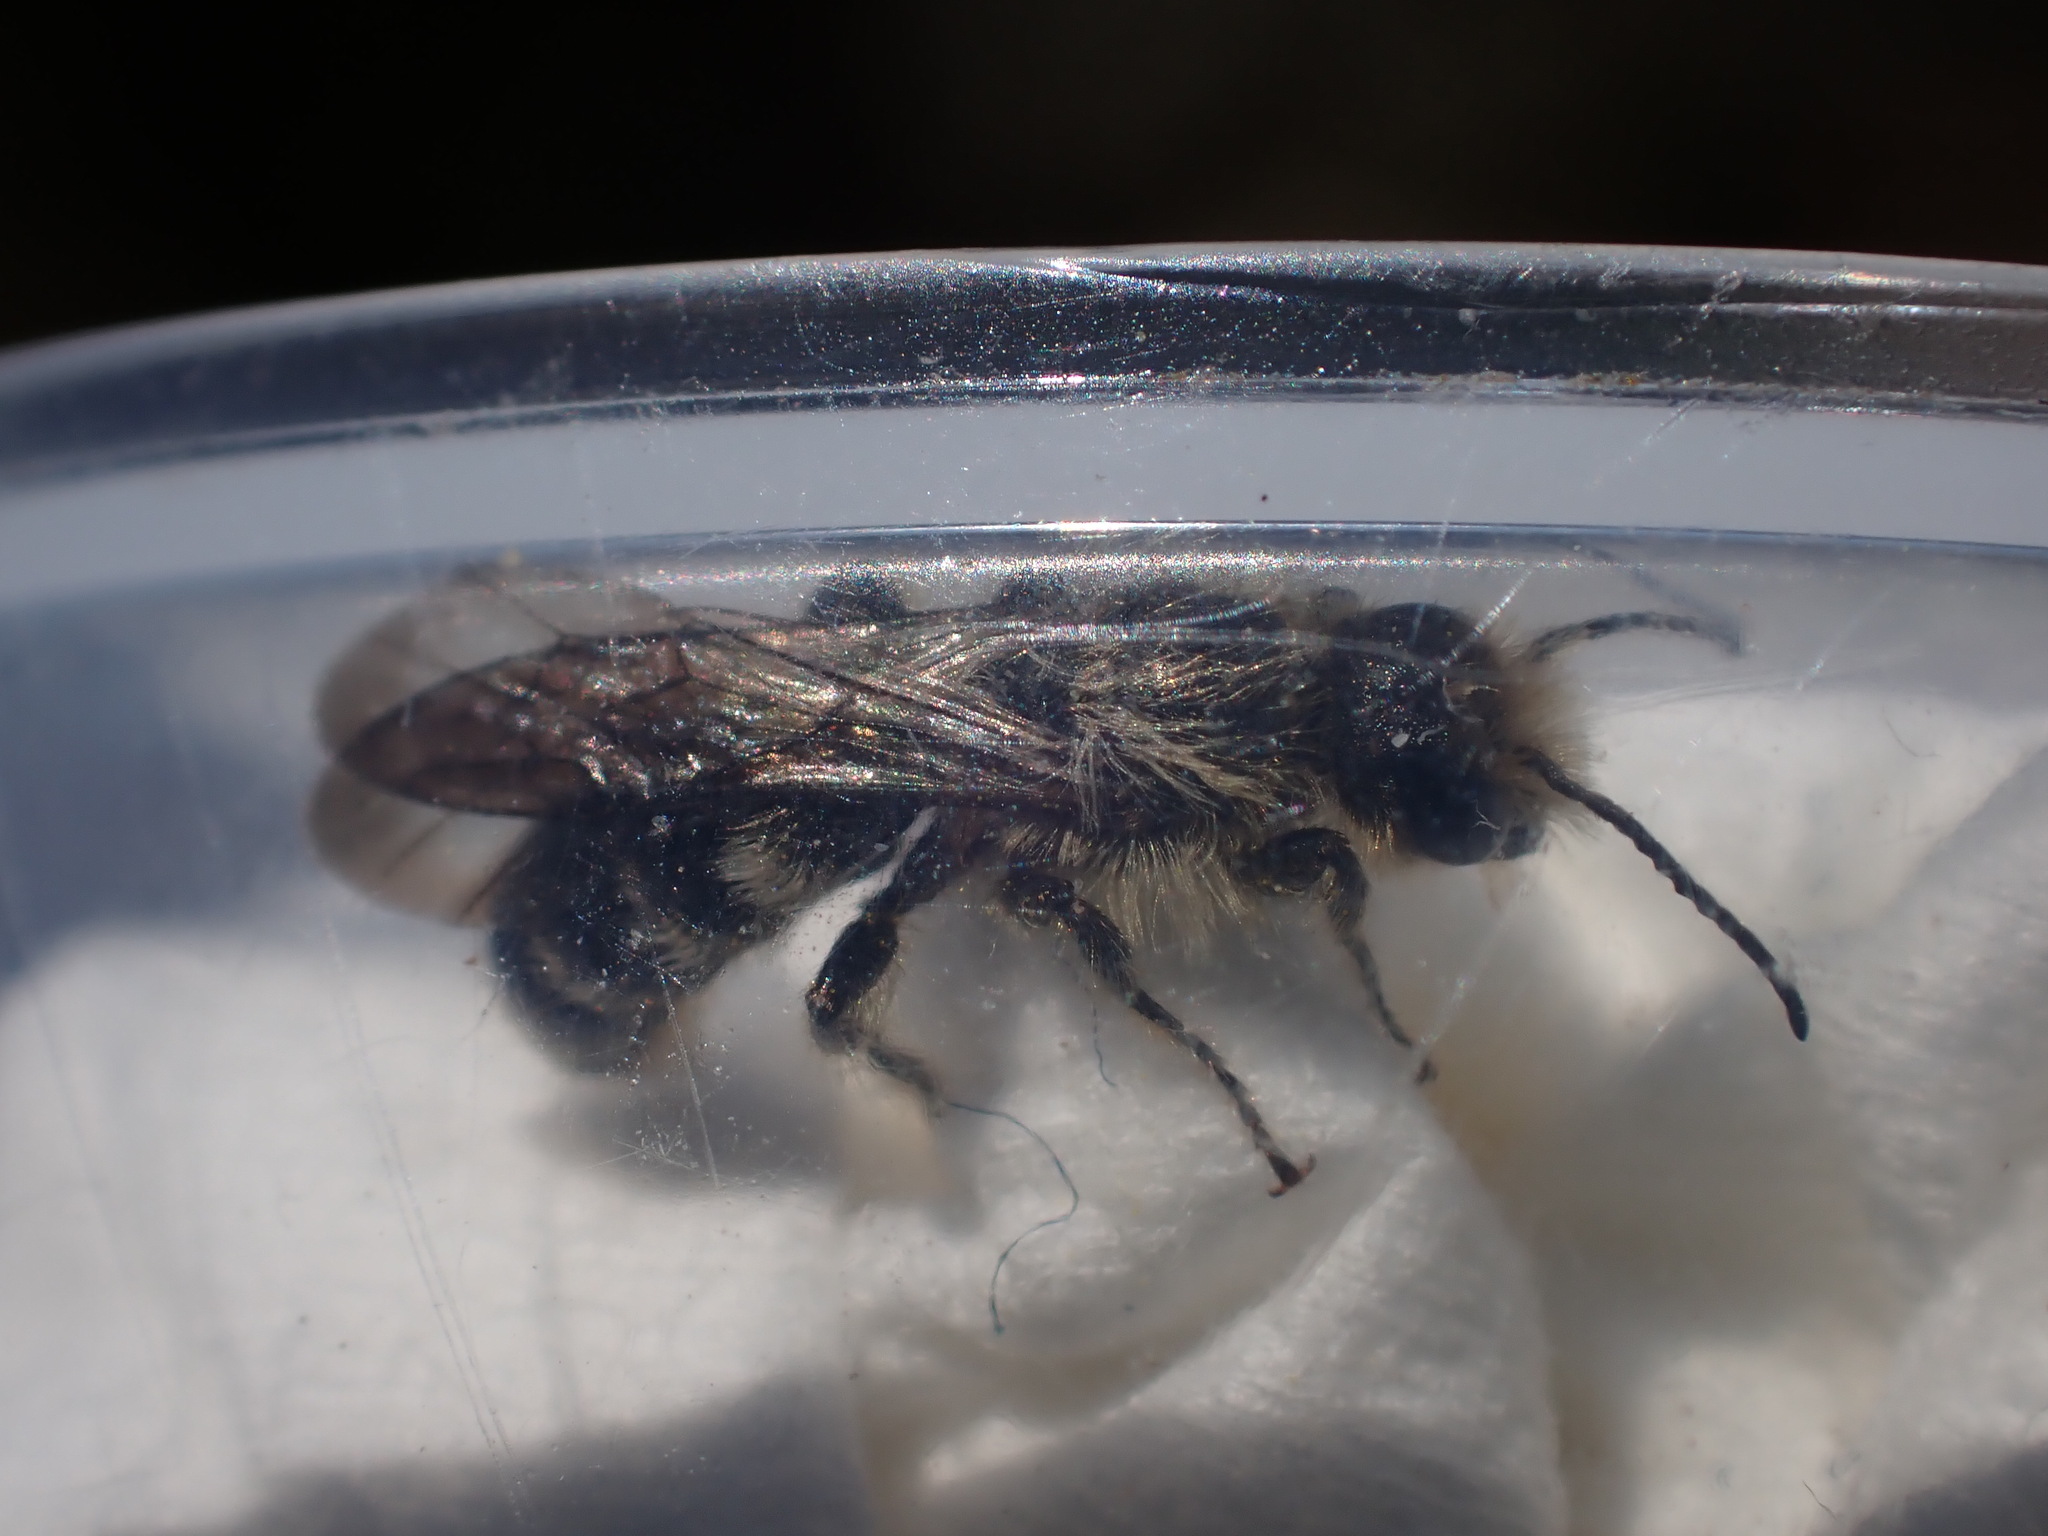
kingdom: Animalia
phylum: Arthropoda
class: Insecta
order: Hymenoptera
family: Megachilidae
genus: Chelostoma
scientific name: Chelostoma florisomne
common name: Sleepy carpenter bee
